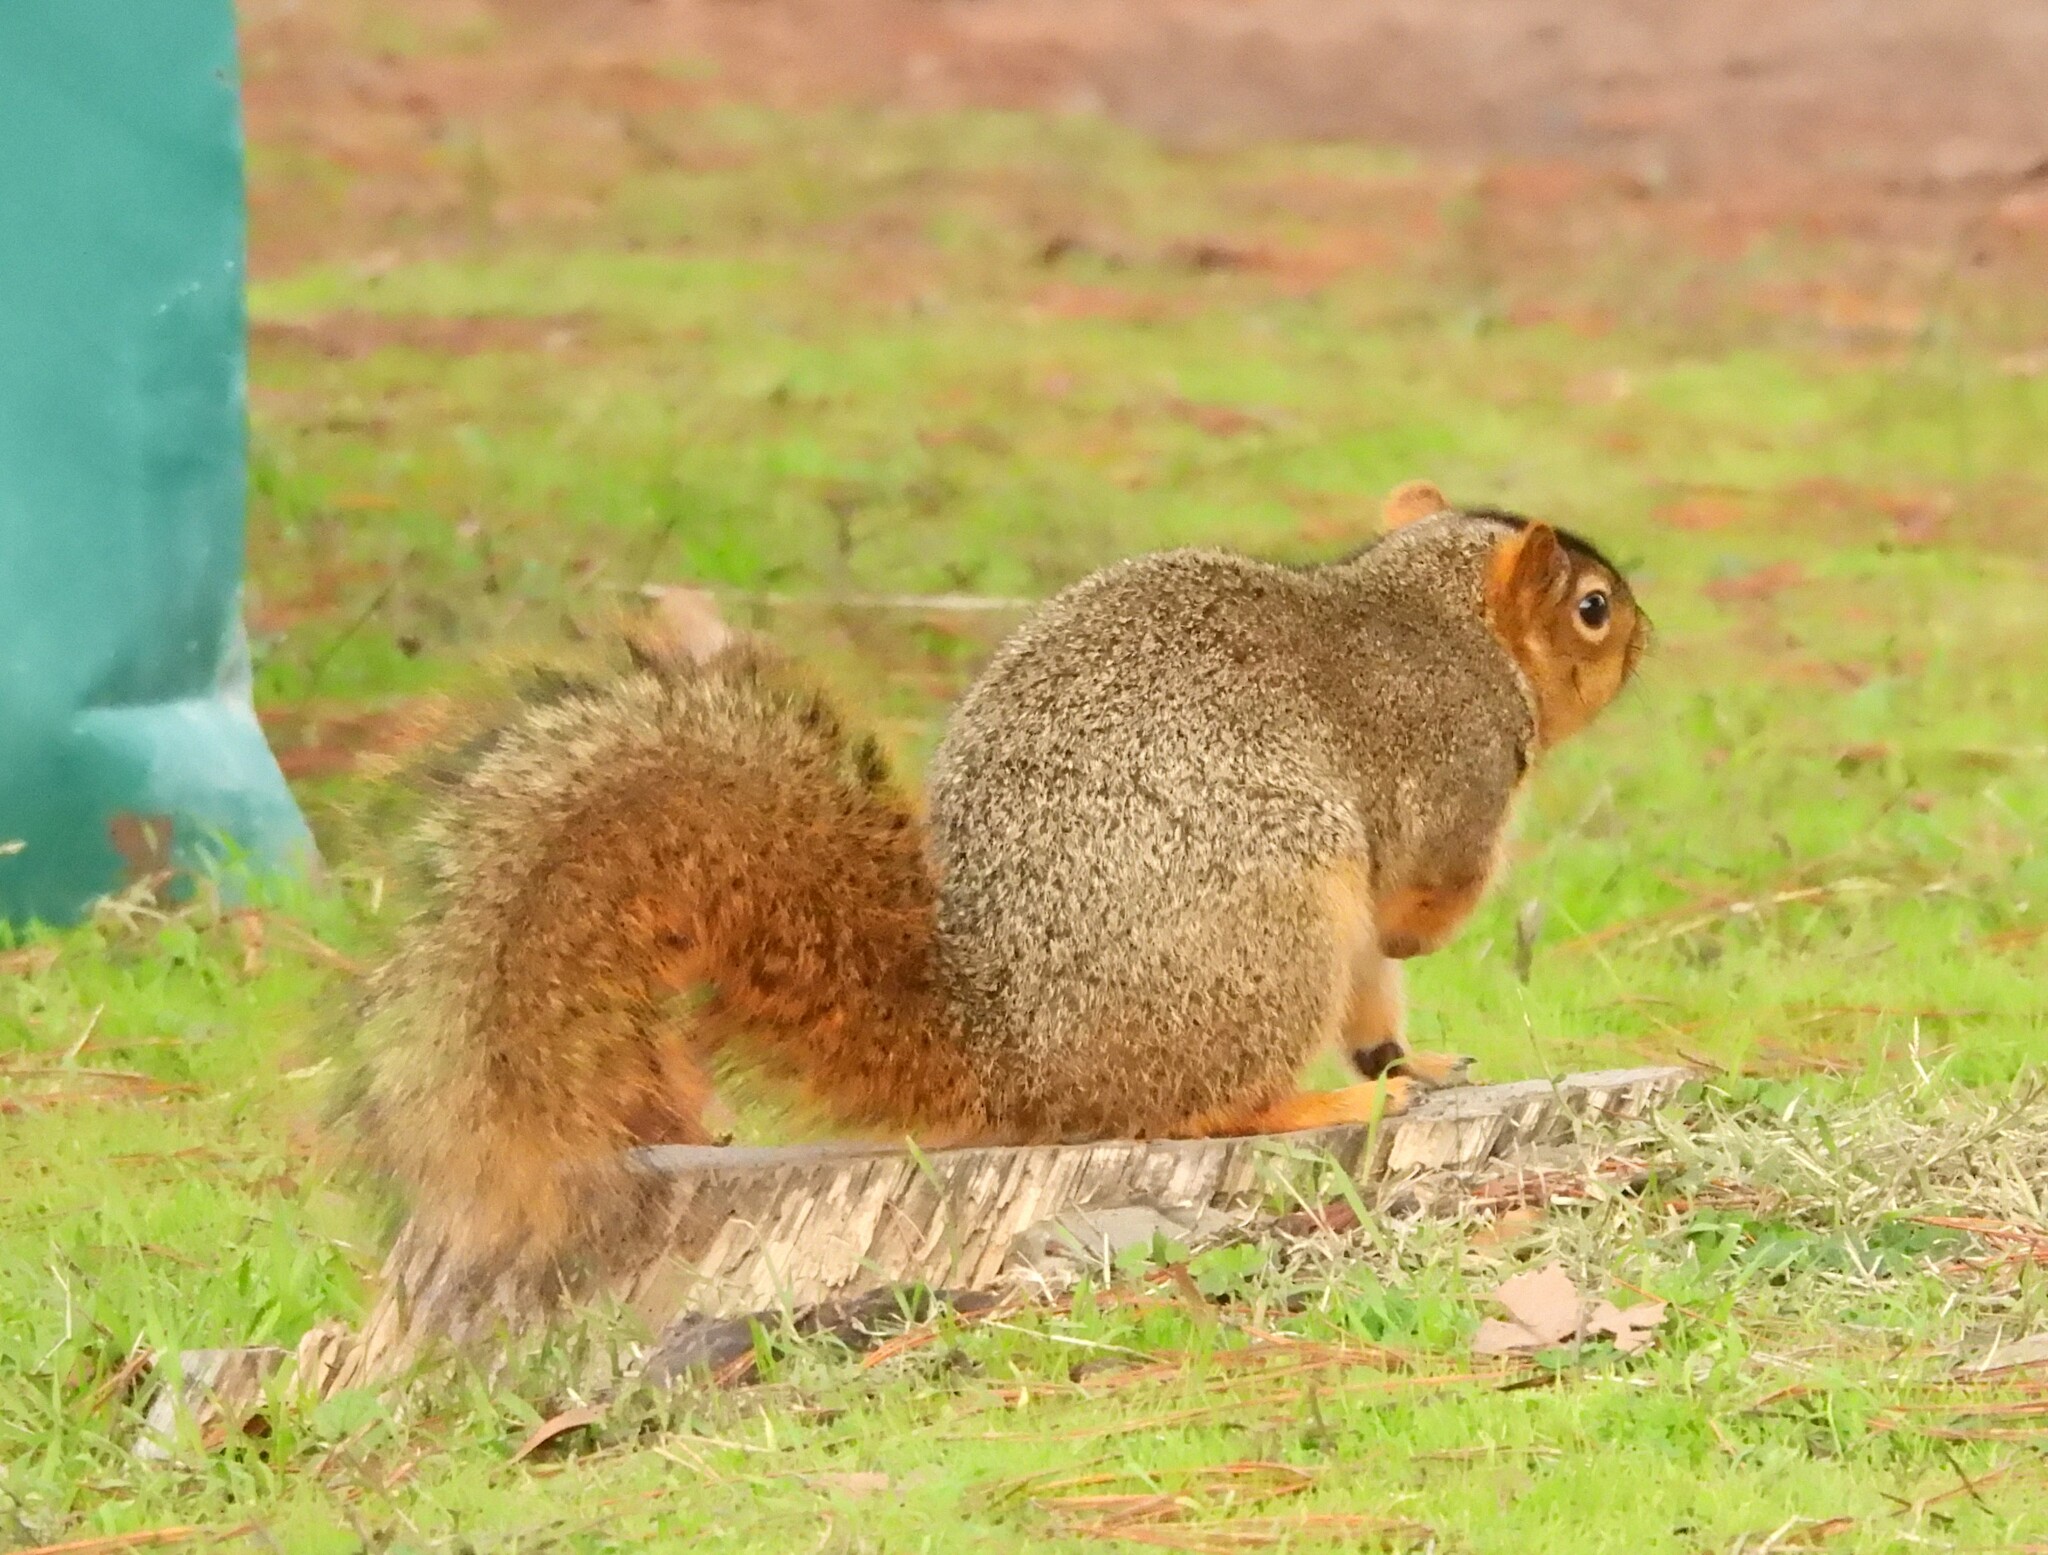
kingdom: Animalia
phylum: Chordata
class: Mammalia
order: Rodentia
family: Sciuridae
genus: Sciurus
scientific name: Sciurus niger
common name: Fox squirrel
